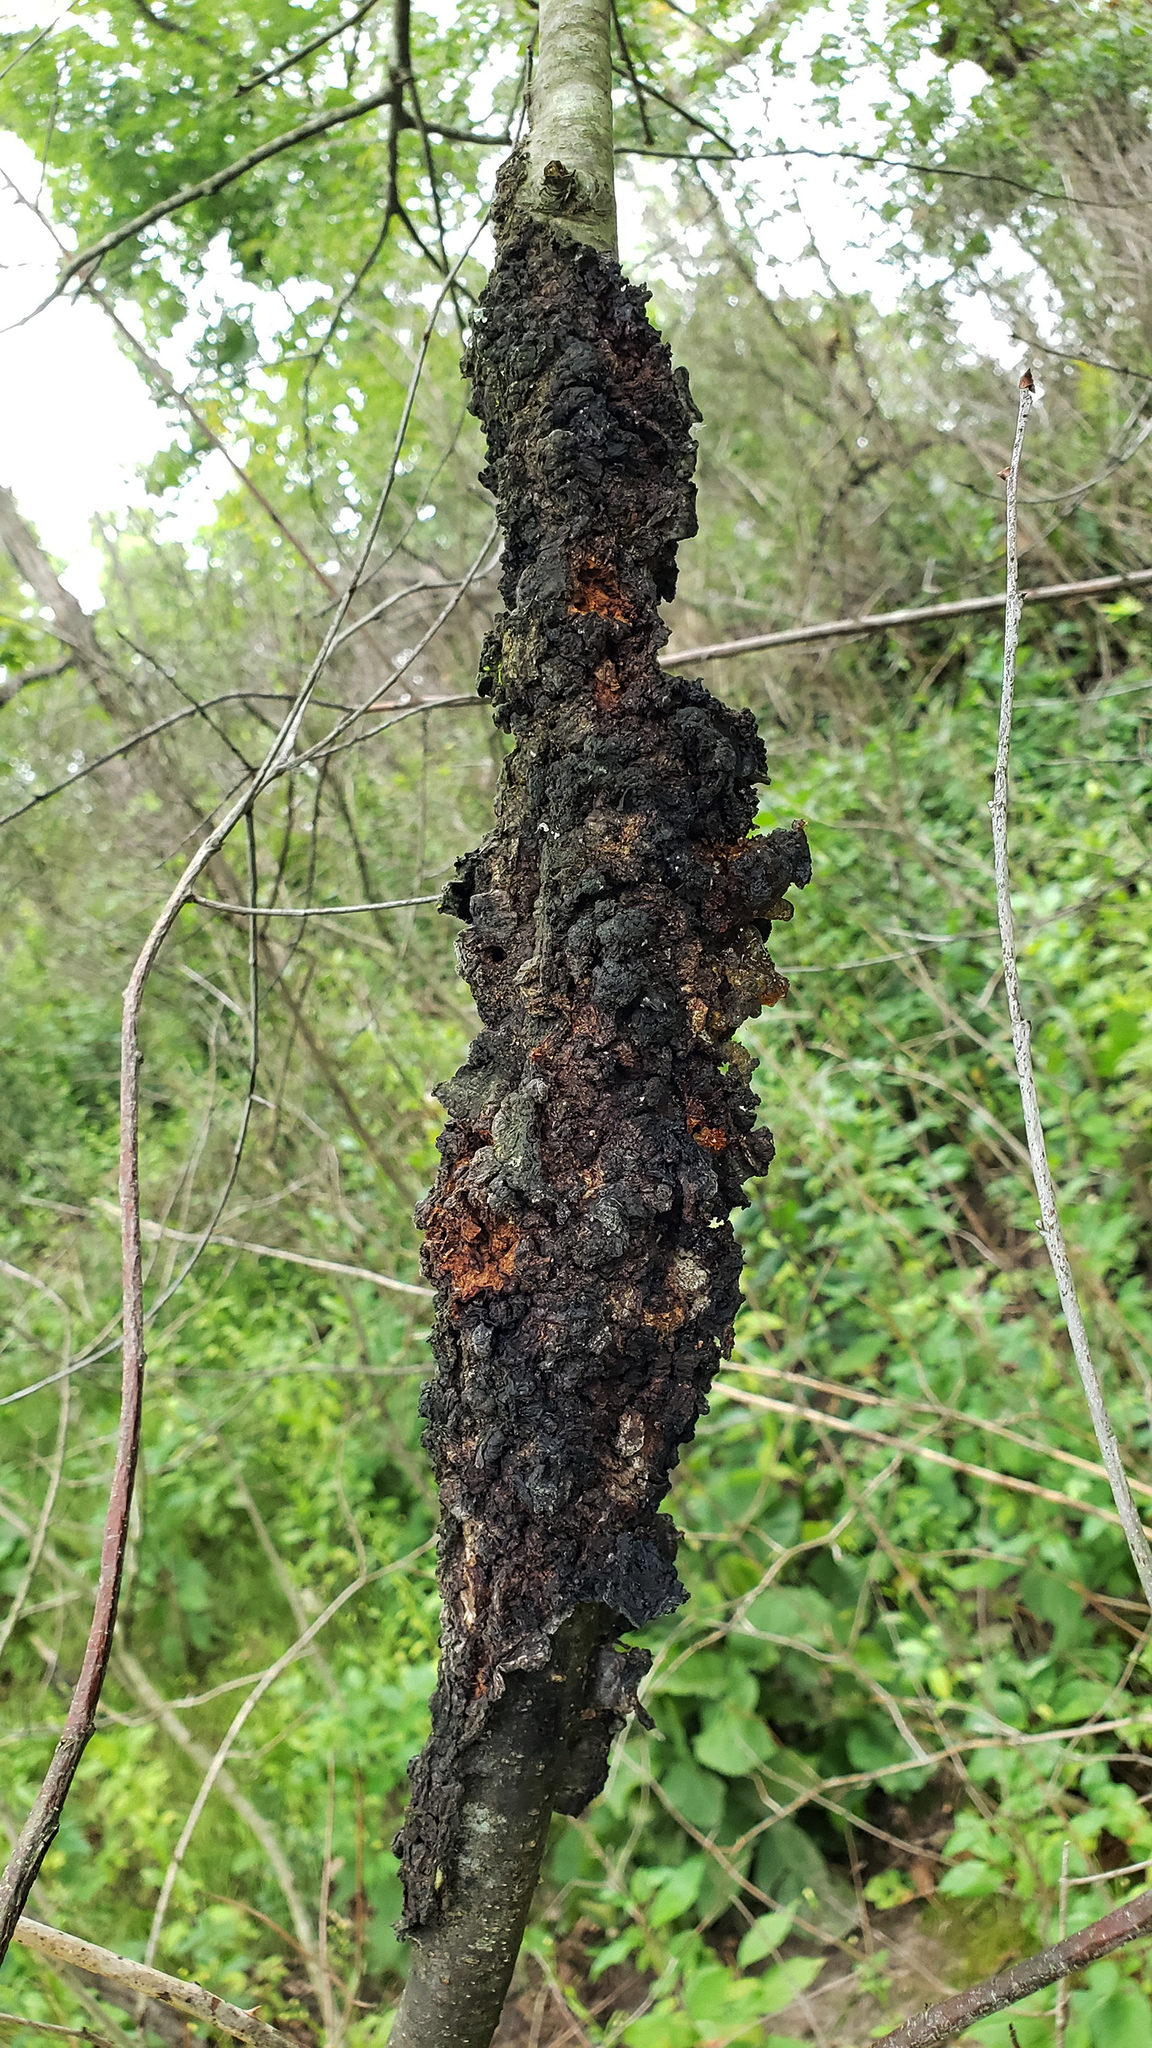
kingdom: Fungi
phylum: Ascomycota
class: Dothideomycetes
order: Venturiales
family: Venturiaceae
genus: Apiosporina
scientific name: Apiosporina morbosa
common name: Black knot
